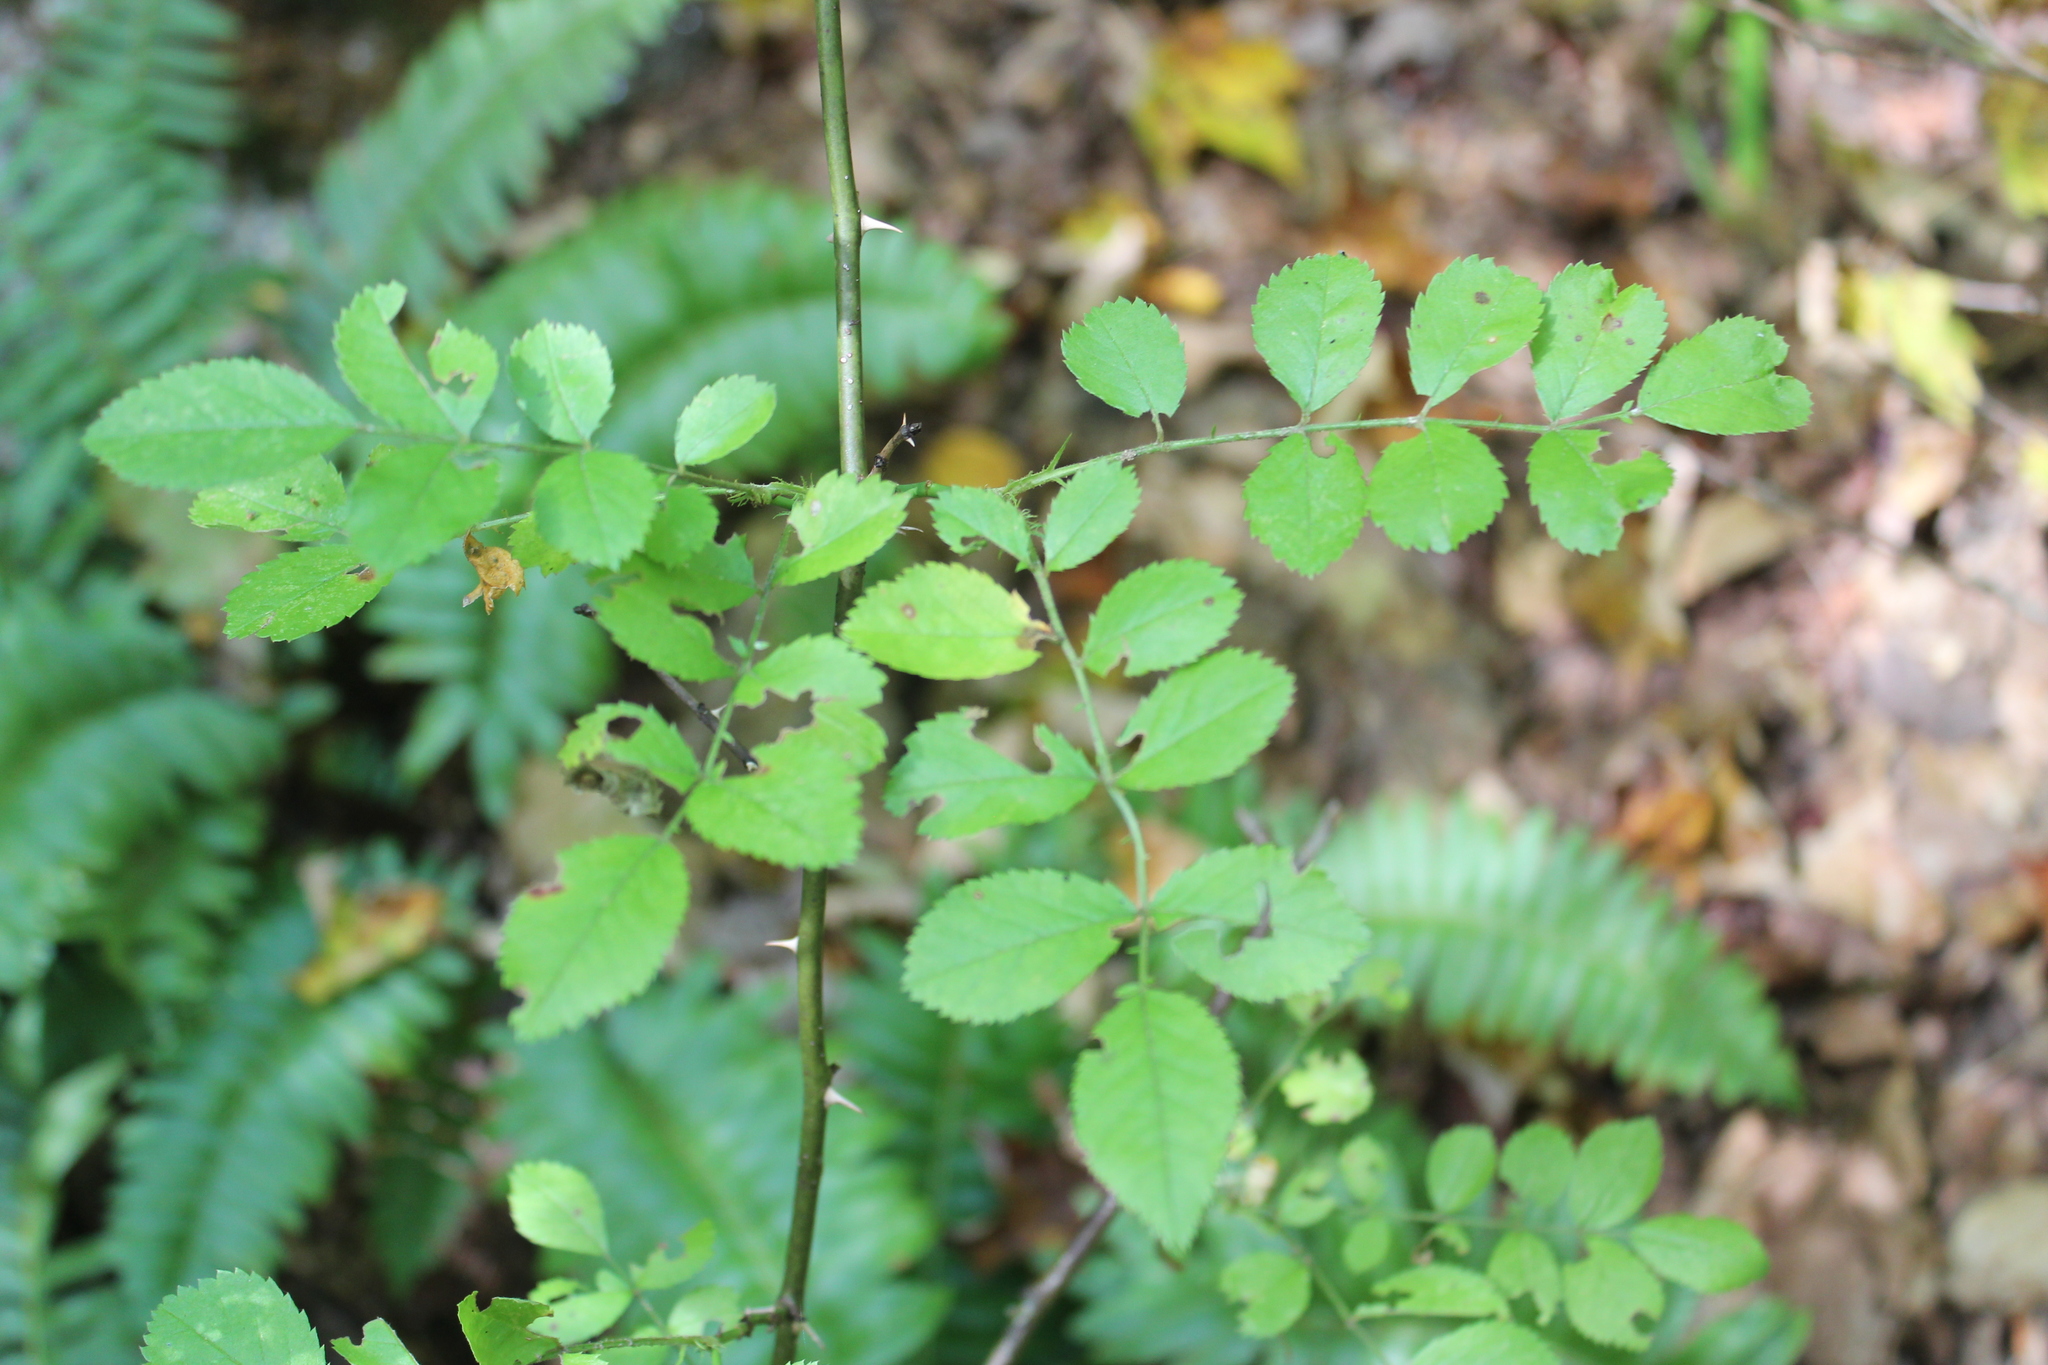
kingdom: Plantae
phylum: Tracheophyta
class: Magnoliopsida
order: Rosales
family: Rosaceae
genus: Rosa
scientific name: Rosa multiflora
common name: Multiflora rose
